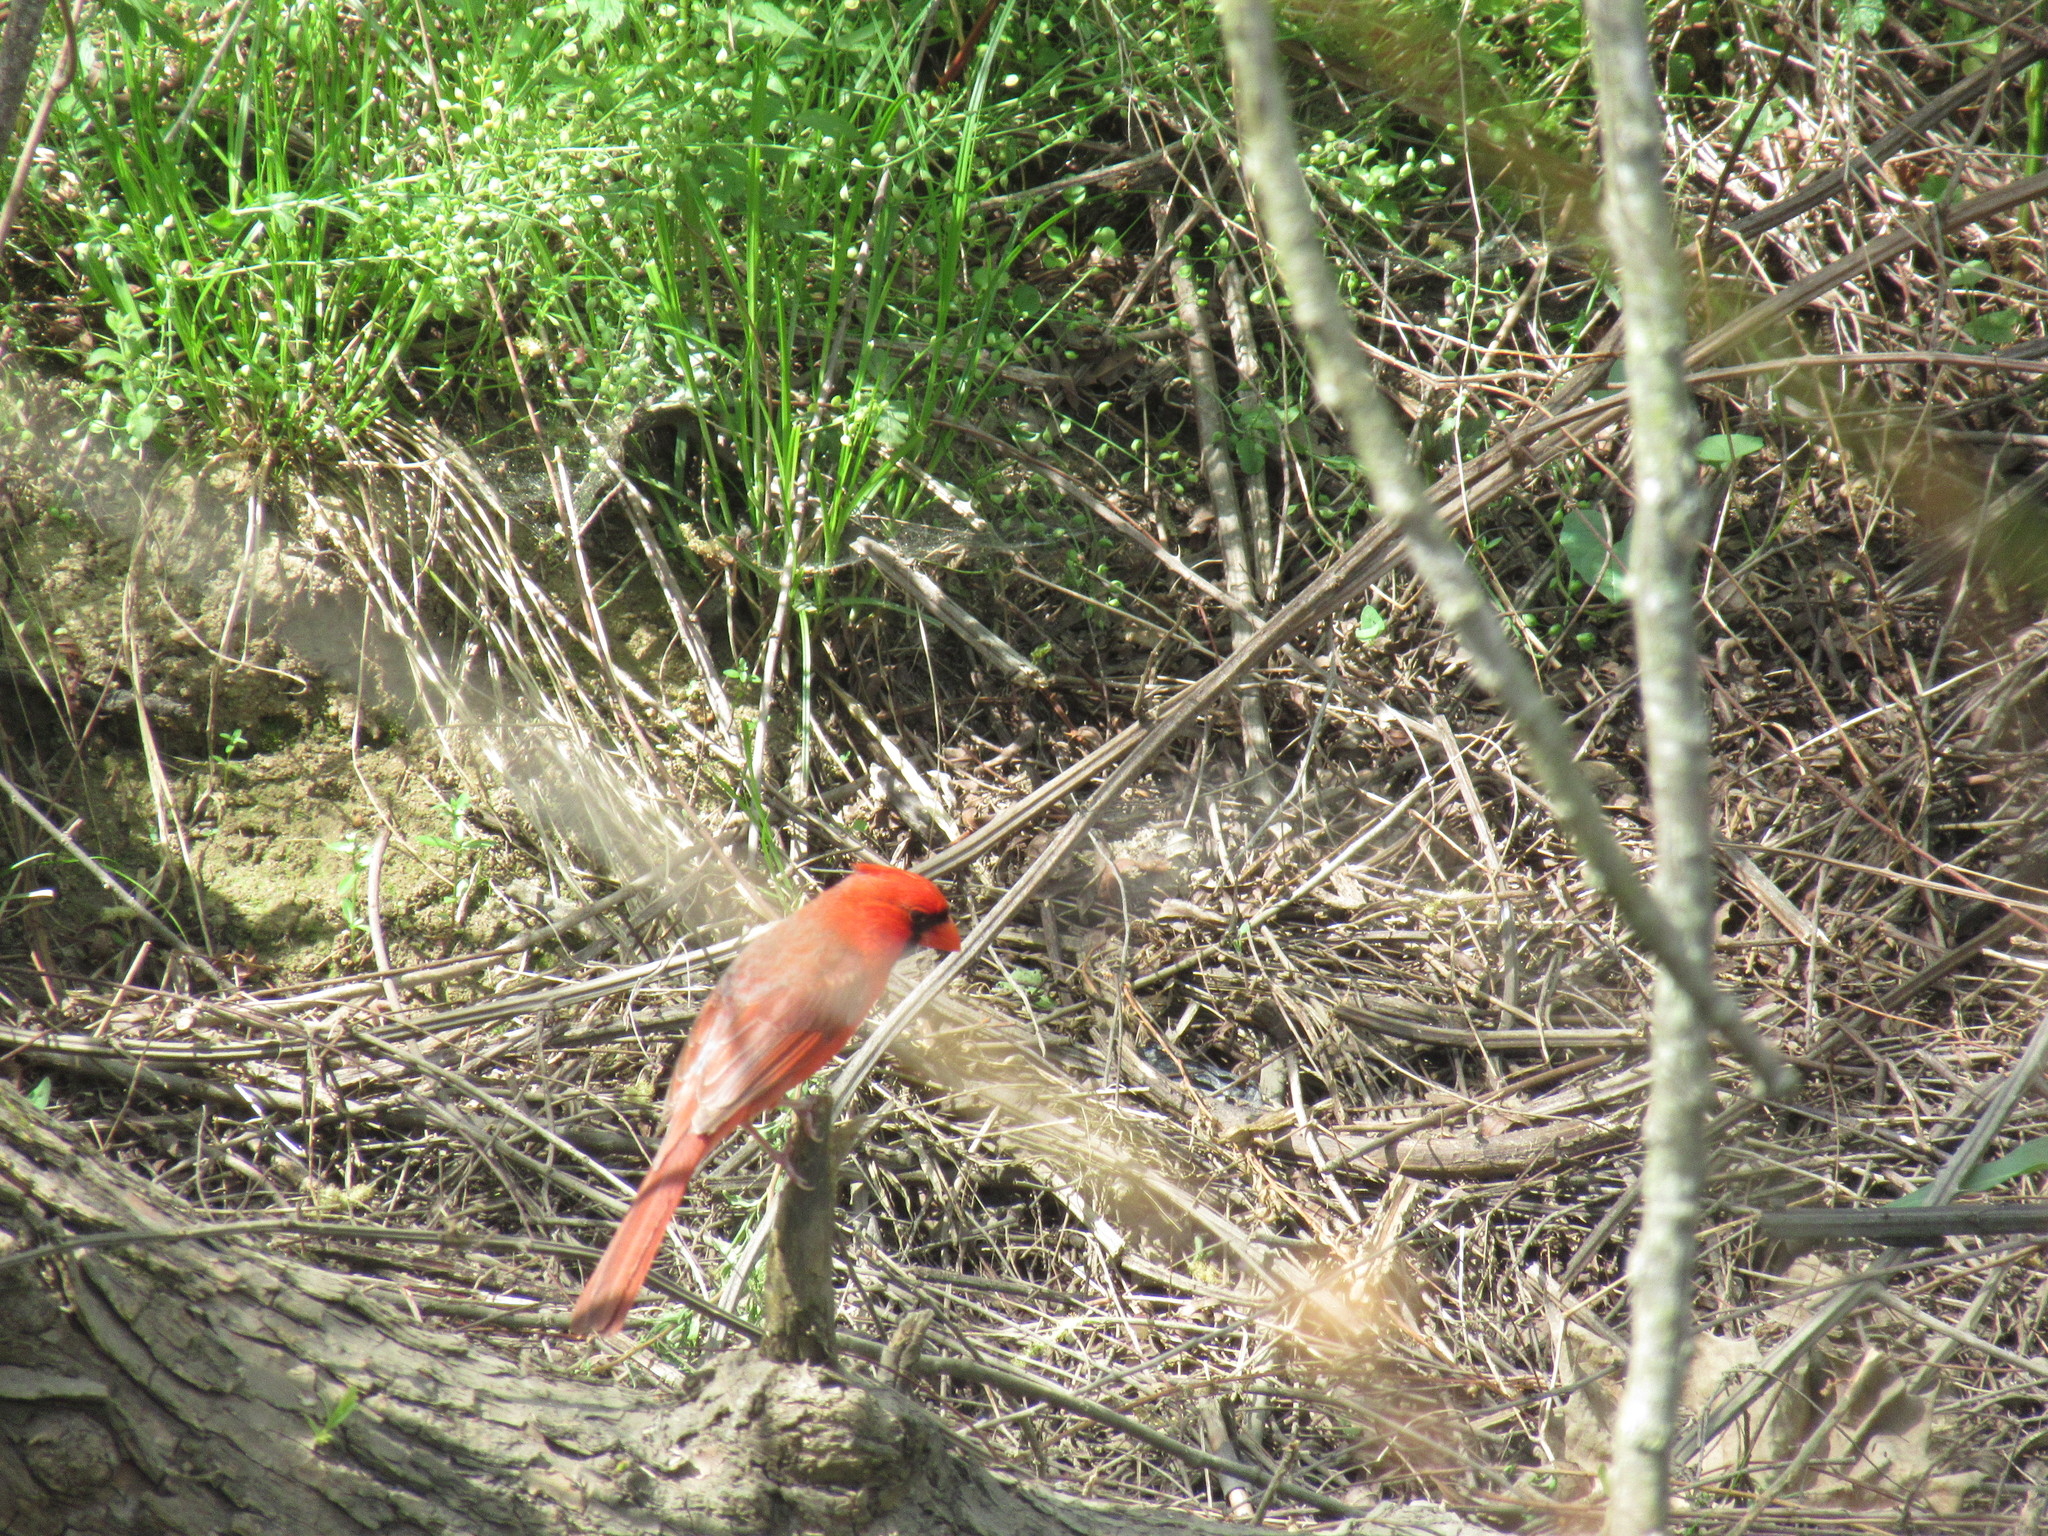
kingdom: Animalia
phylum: Chordata
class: Aves
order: Passeriformes
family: Cardinalidae
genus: Cardinalis
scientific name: Cardinalis cardinalis
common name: Northern cardinal
